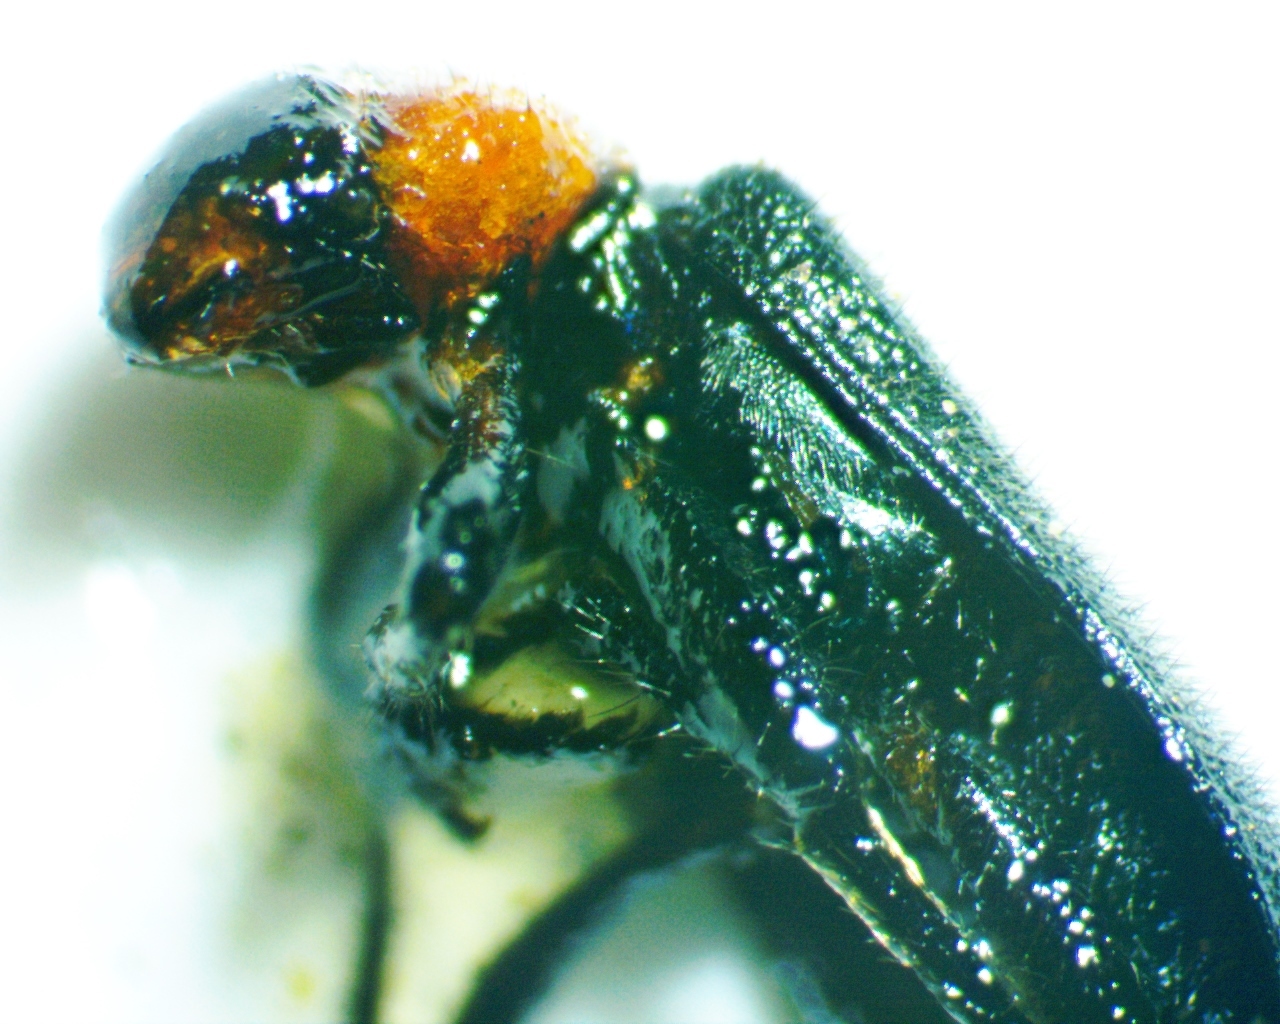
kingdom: Animalia
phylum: Arthropoda
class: Insecta
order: Coleoptera
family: Cleridae
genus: Placopterus
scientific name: Placopterus thoracicus
